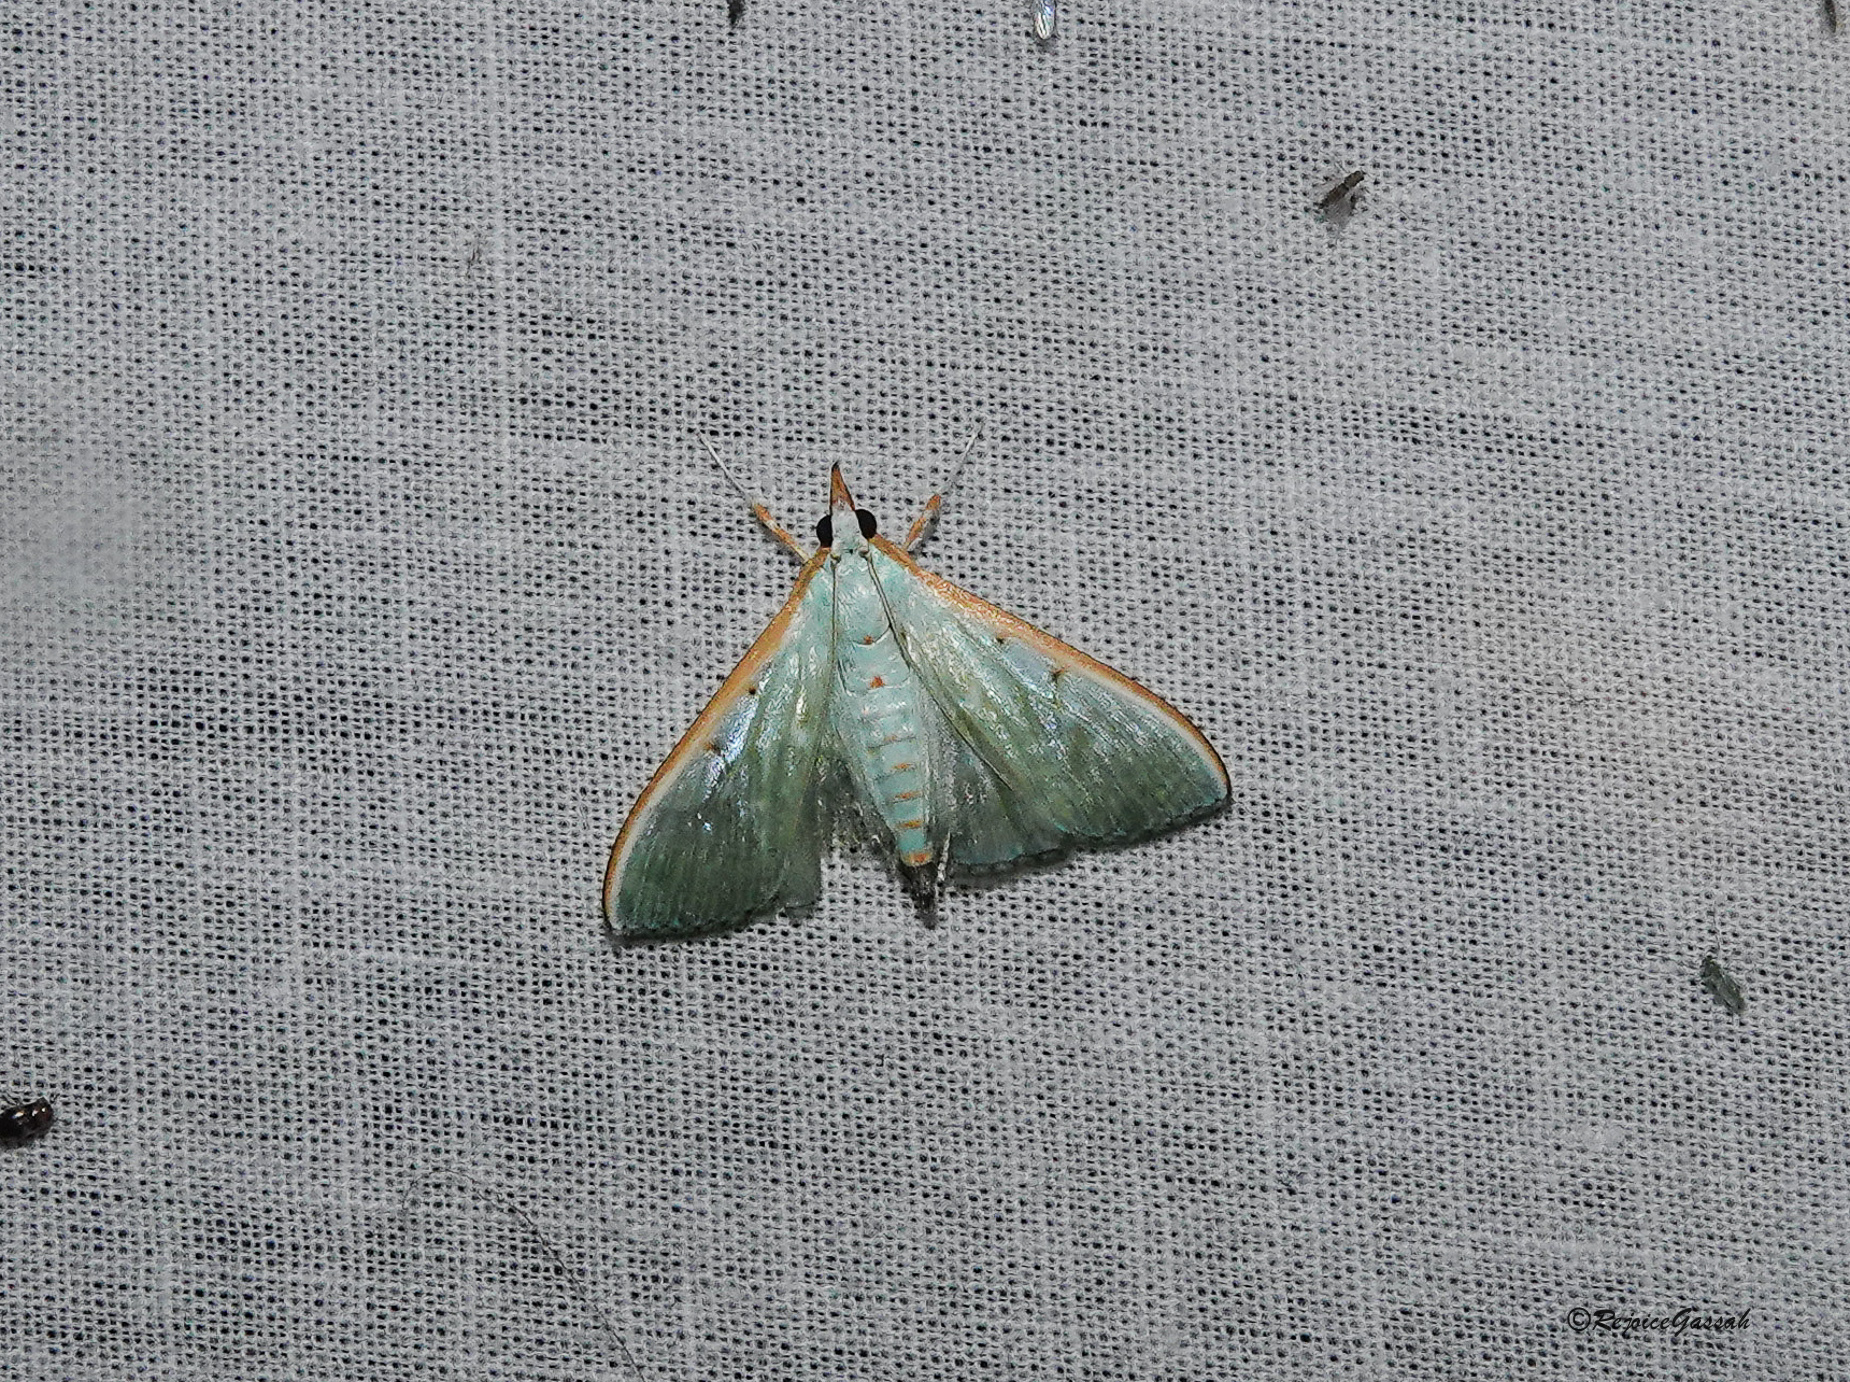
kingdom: Animalia
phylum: Arthropoda
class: Insecta
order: Lepidoptera
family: Crambidae
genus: Arthroschista
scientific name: Arthroschista hilaralis
